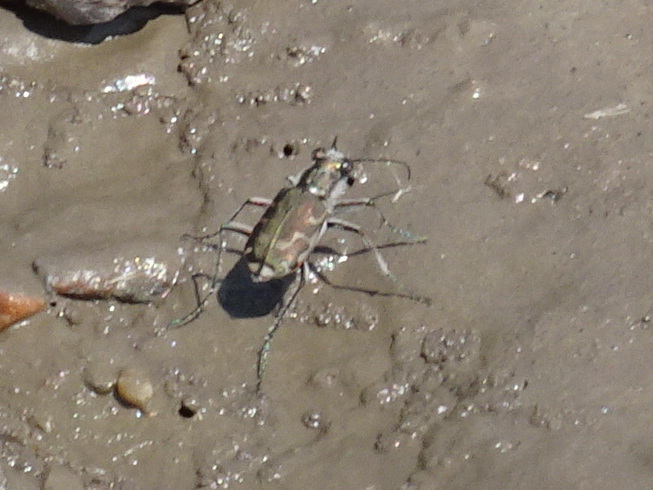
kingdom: Animalia
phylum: Arthropoda
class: Insecta
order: Coleoptera
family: Carabidae
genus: Cicindela
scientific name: Cicindela repanda
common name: Bronzed tiger beetle
